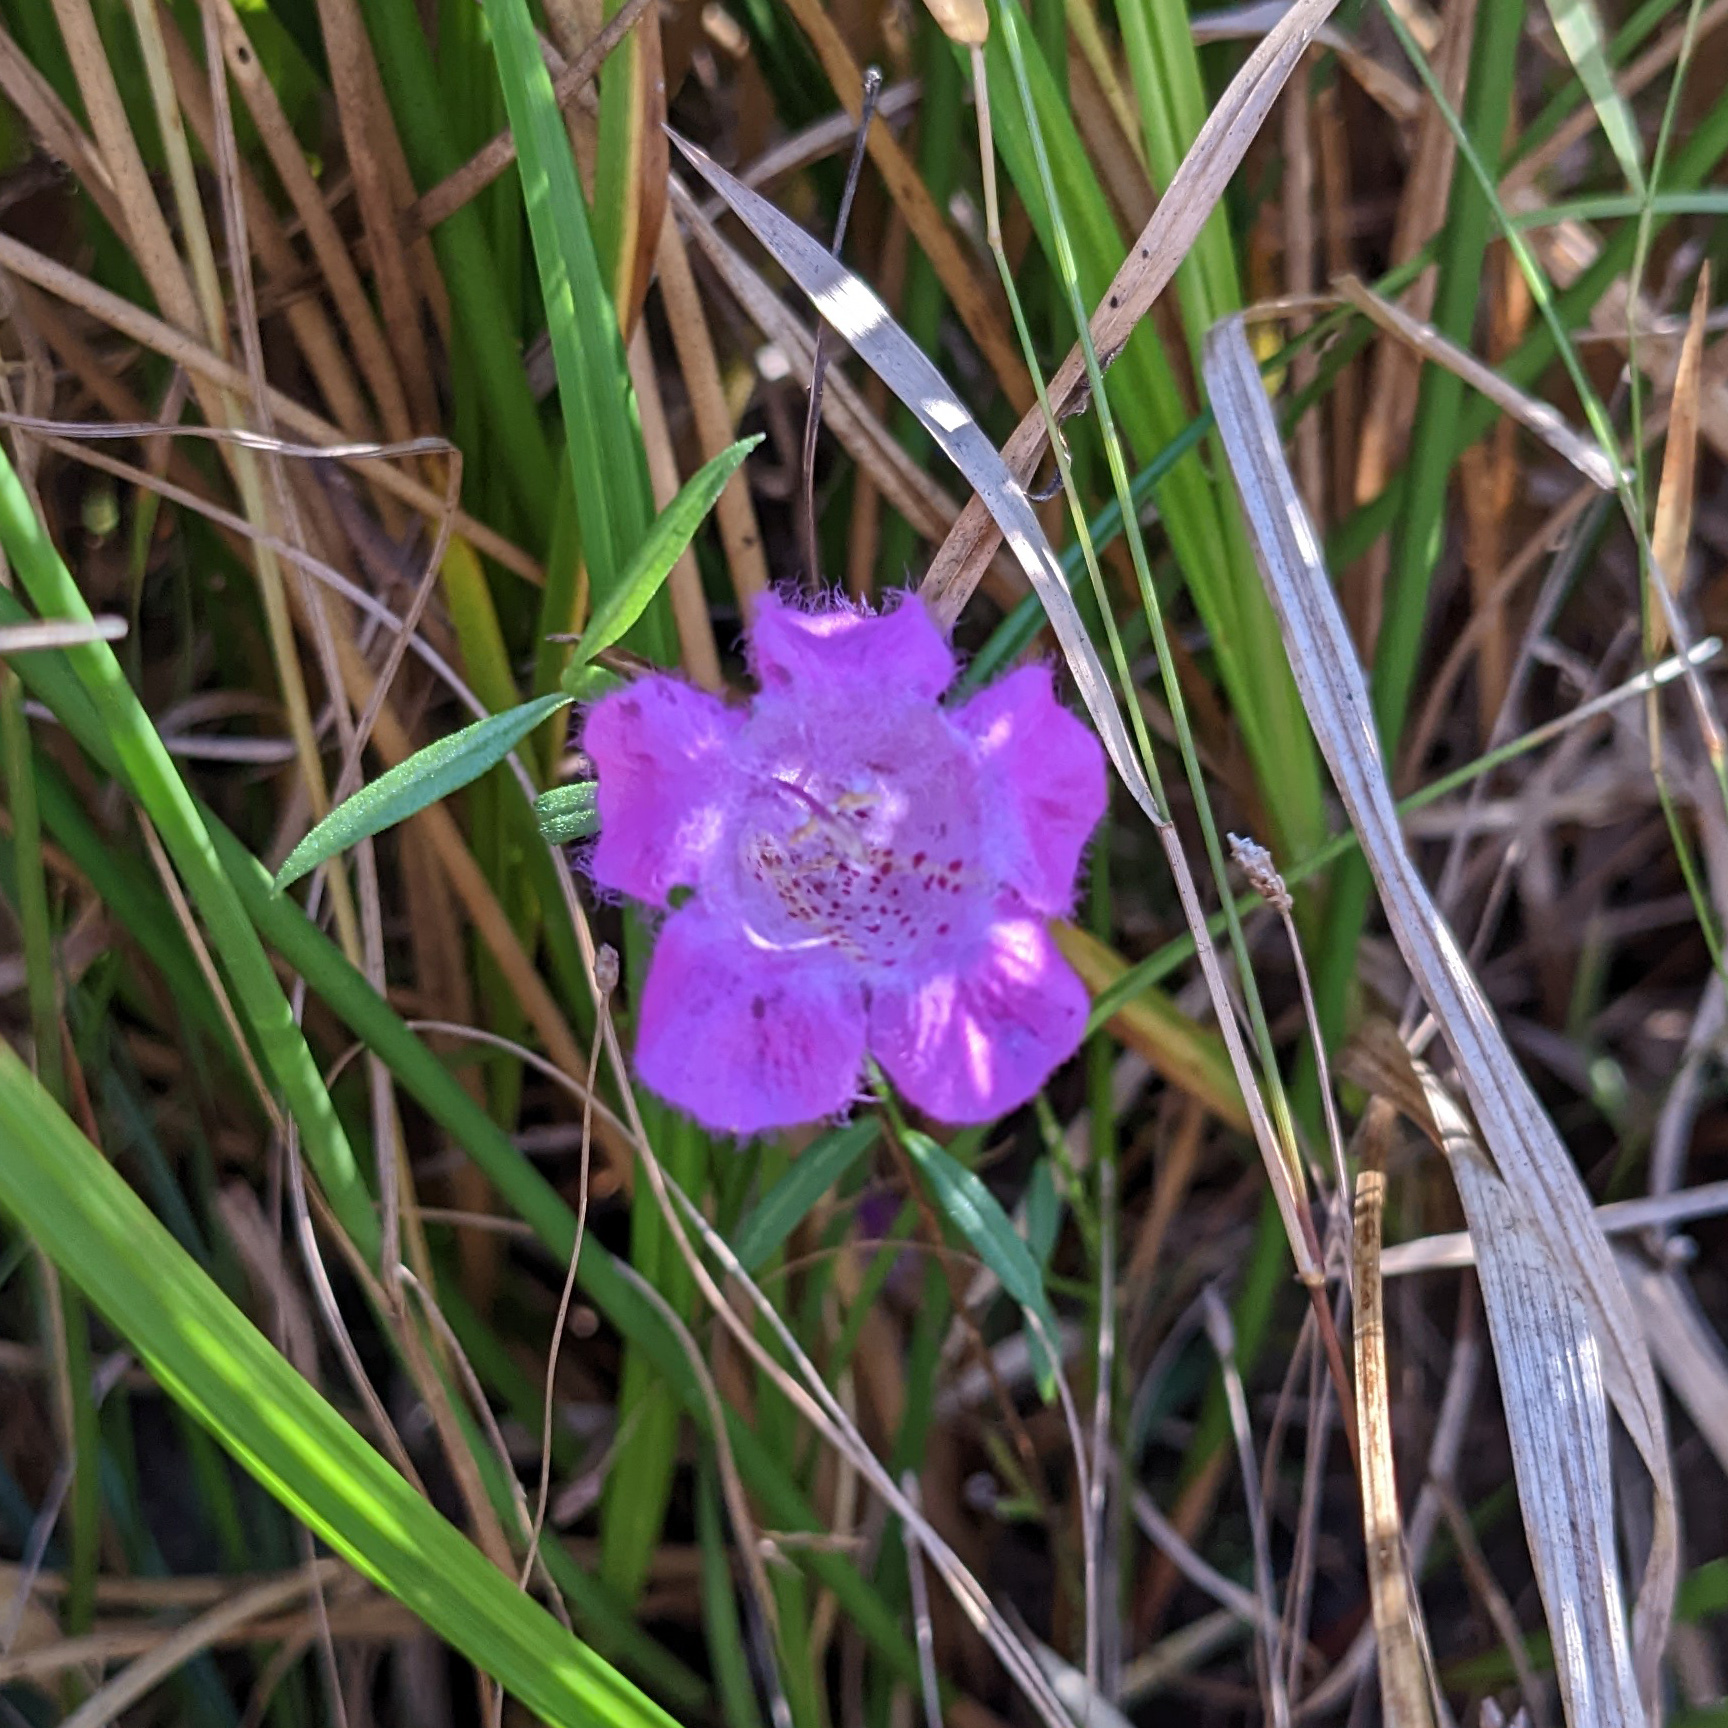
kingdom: Plantae
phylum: Tracheophyta
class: Magnoliopsida
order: Lamiales
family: Orobanchaceae
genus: Agalinis
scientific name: Agalinis purpurea
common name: Purple false foxglove
